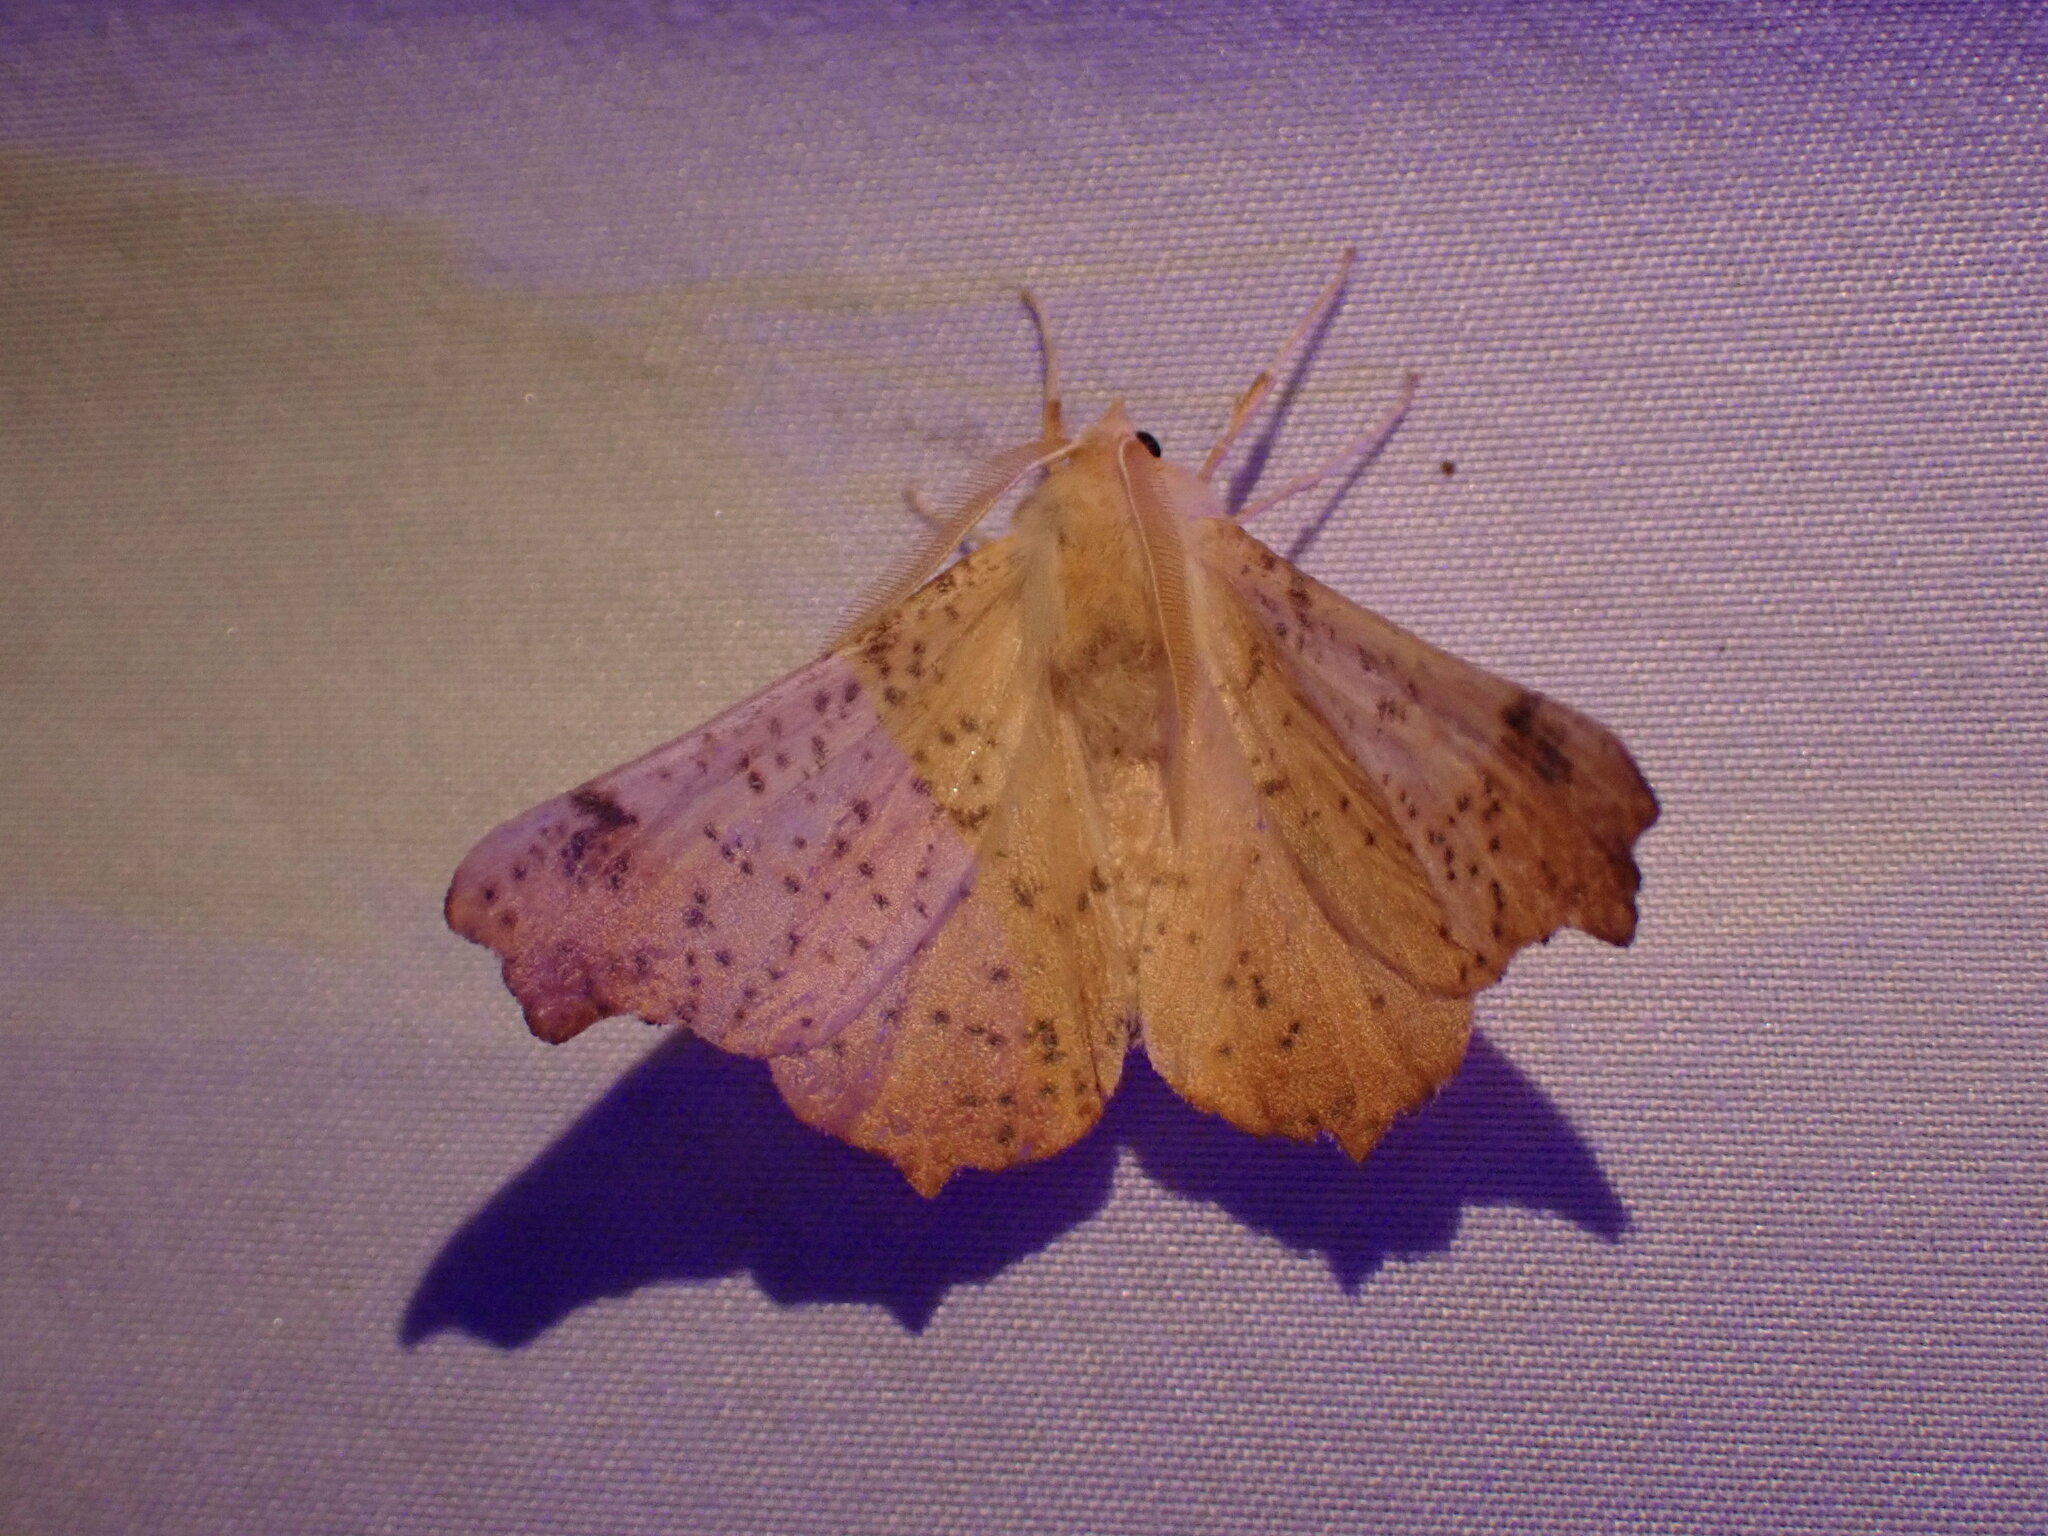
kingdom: Animalia
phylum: Arthropoda
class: Insecta
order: Lepidoptera
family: Geometridae
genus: Ennomos
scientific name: Ennomos magnaria
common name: Maple spanworm
